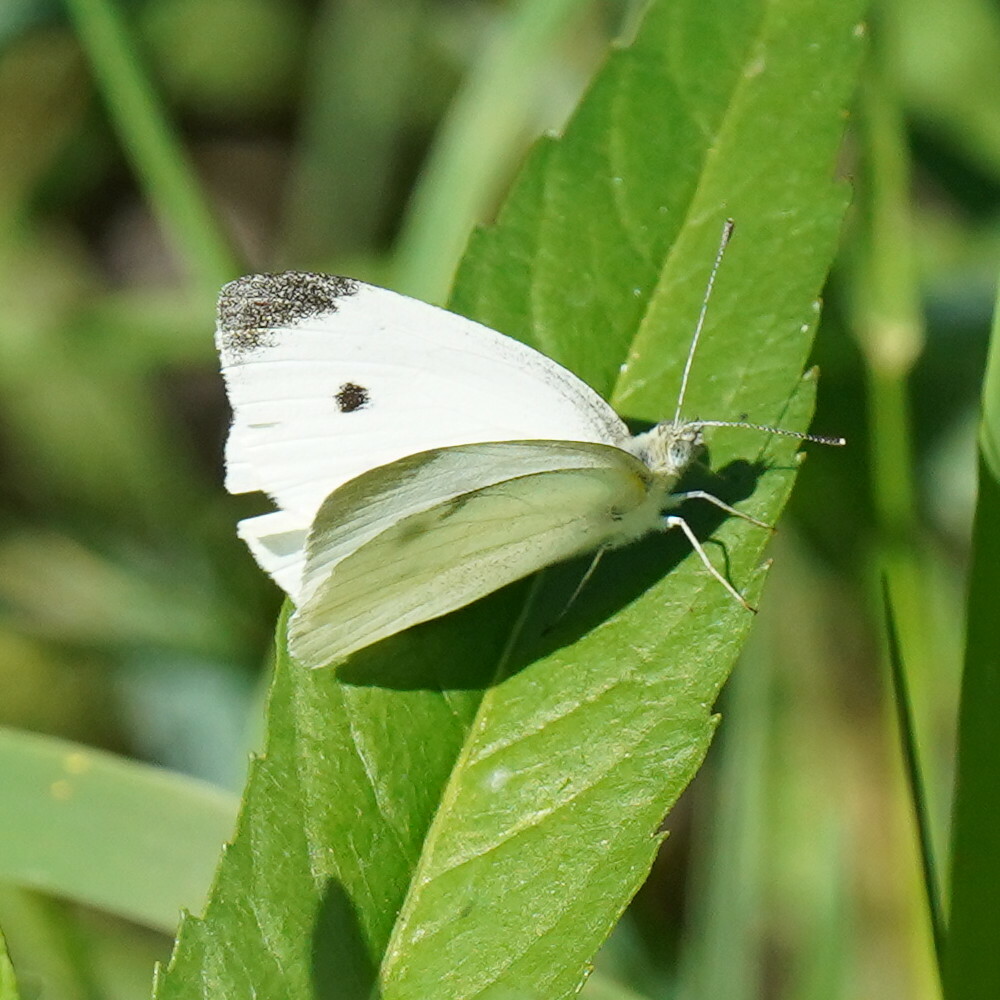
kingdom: Animalia
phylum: Arthropoda
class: Insecta
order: Lepidoptera
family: Pieridae
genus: Pieris
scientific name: Pieris rapae
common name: Small white
